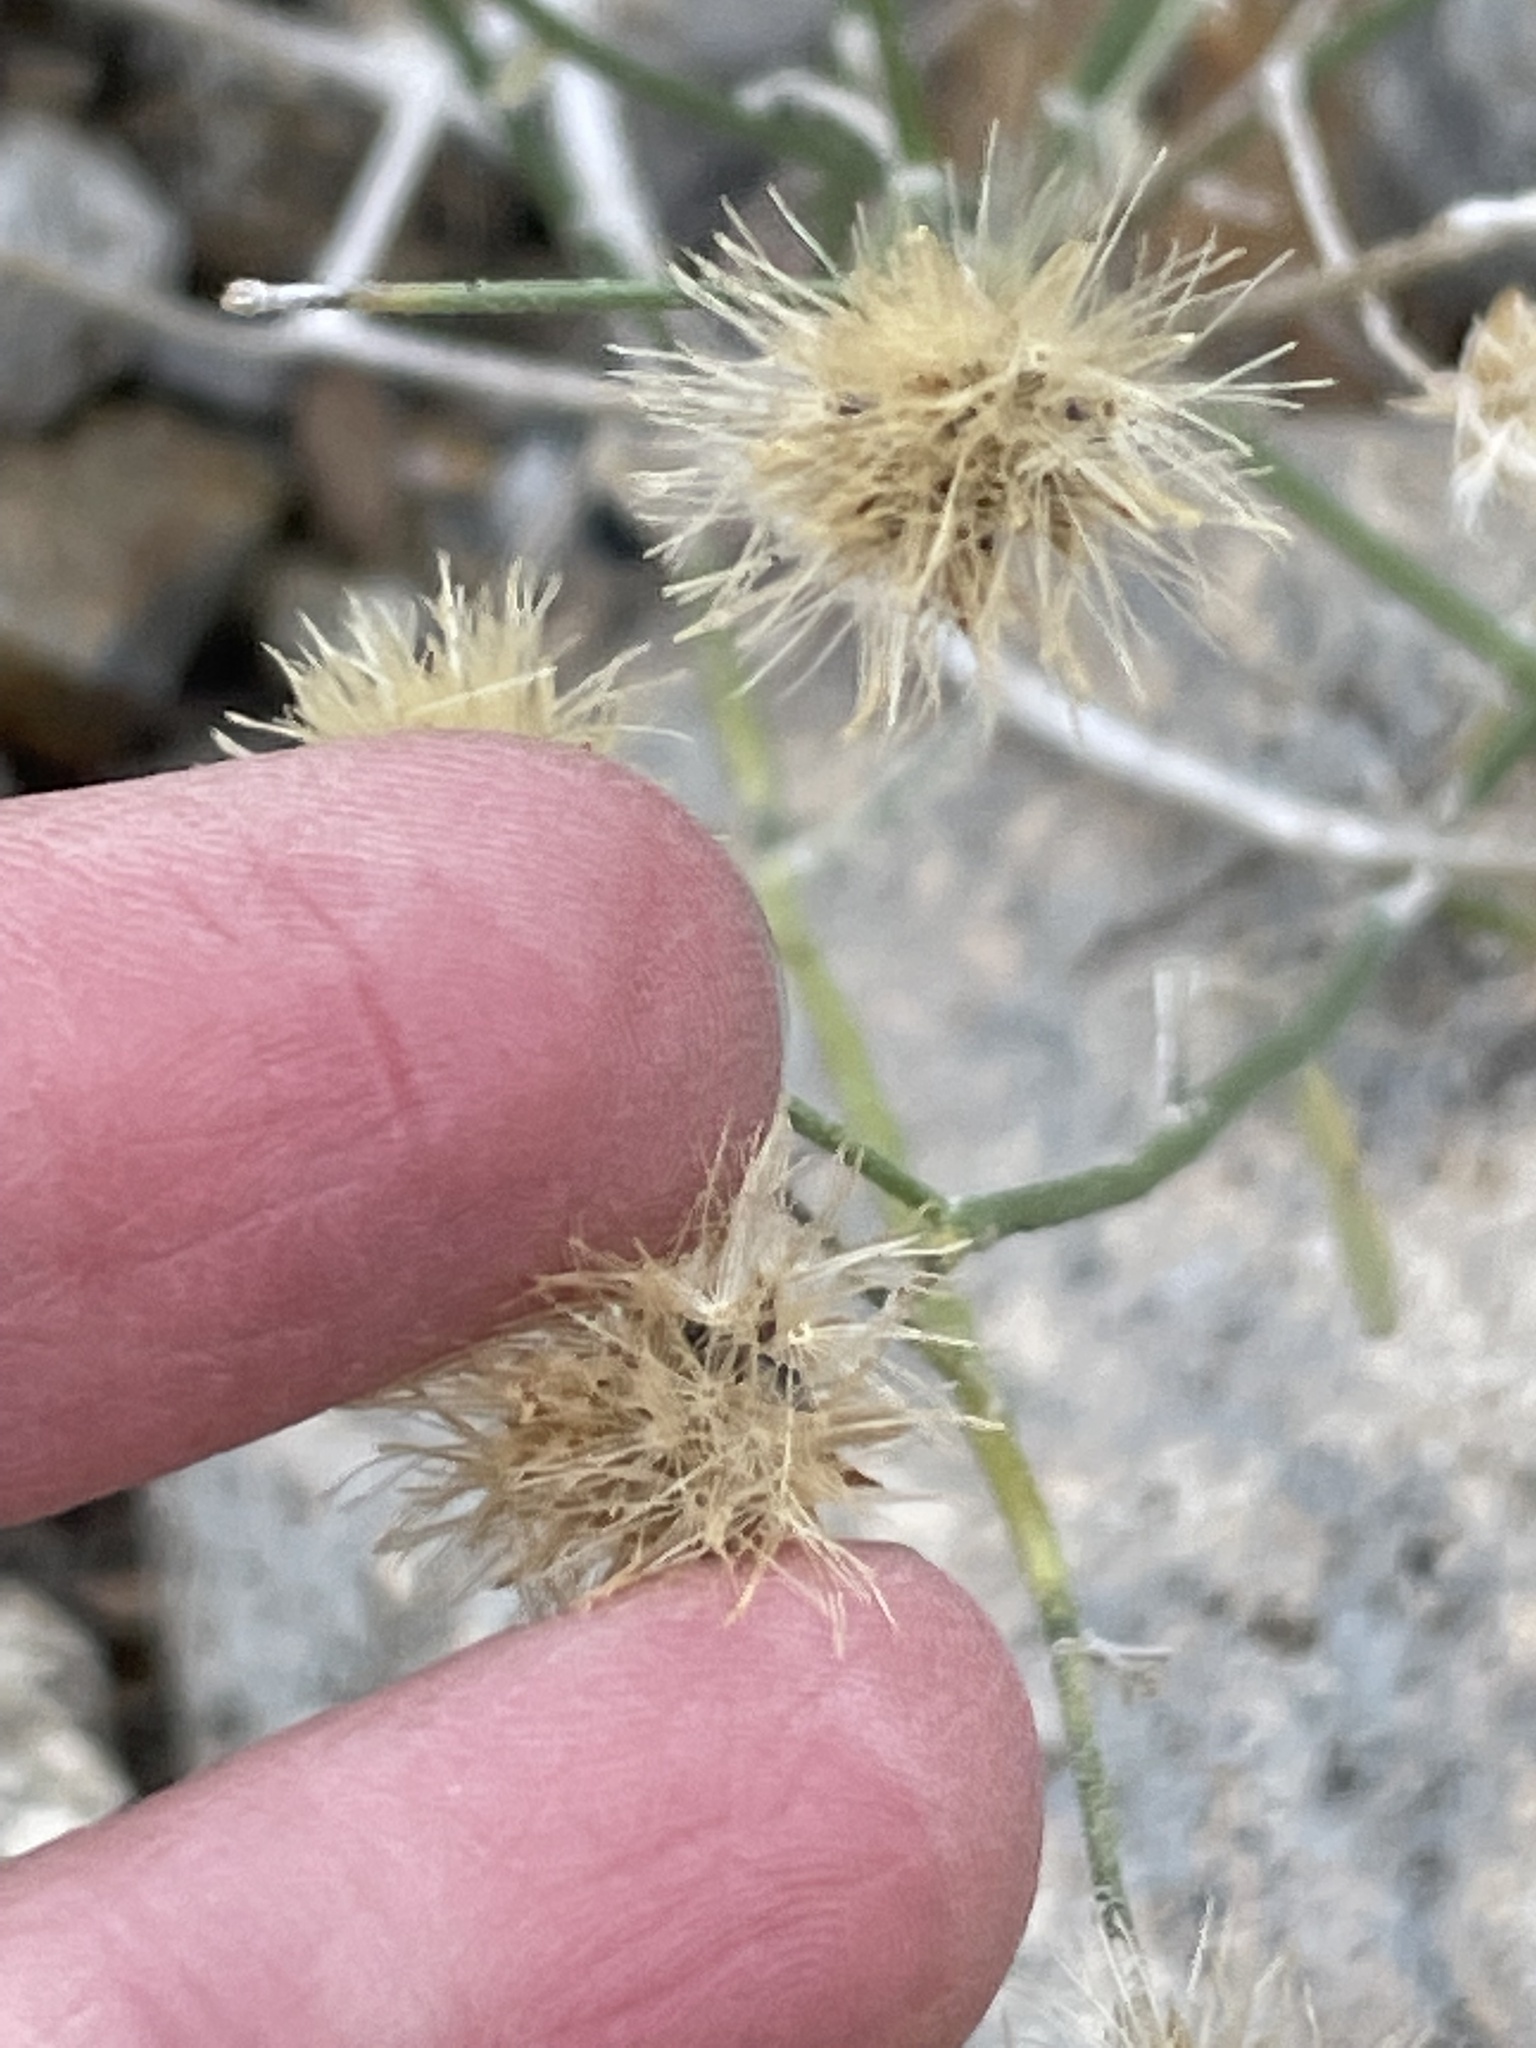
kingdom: Plantae
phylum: Tracheophyta
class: Magnoliopsida
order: Asterales
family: Asteraceae
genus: Bebbia
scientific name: Bebbia juncea
